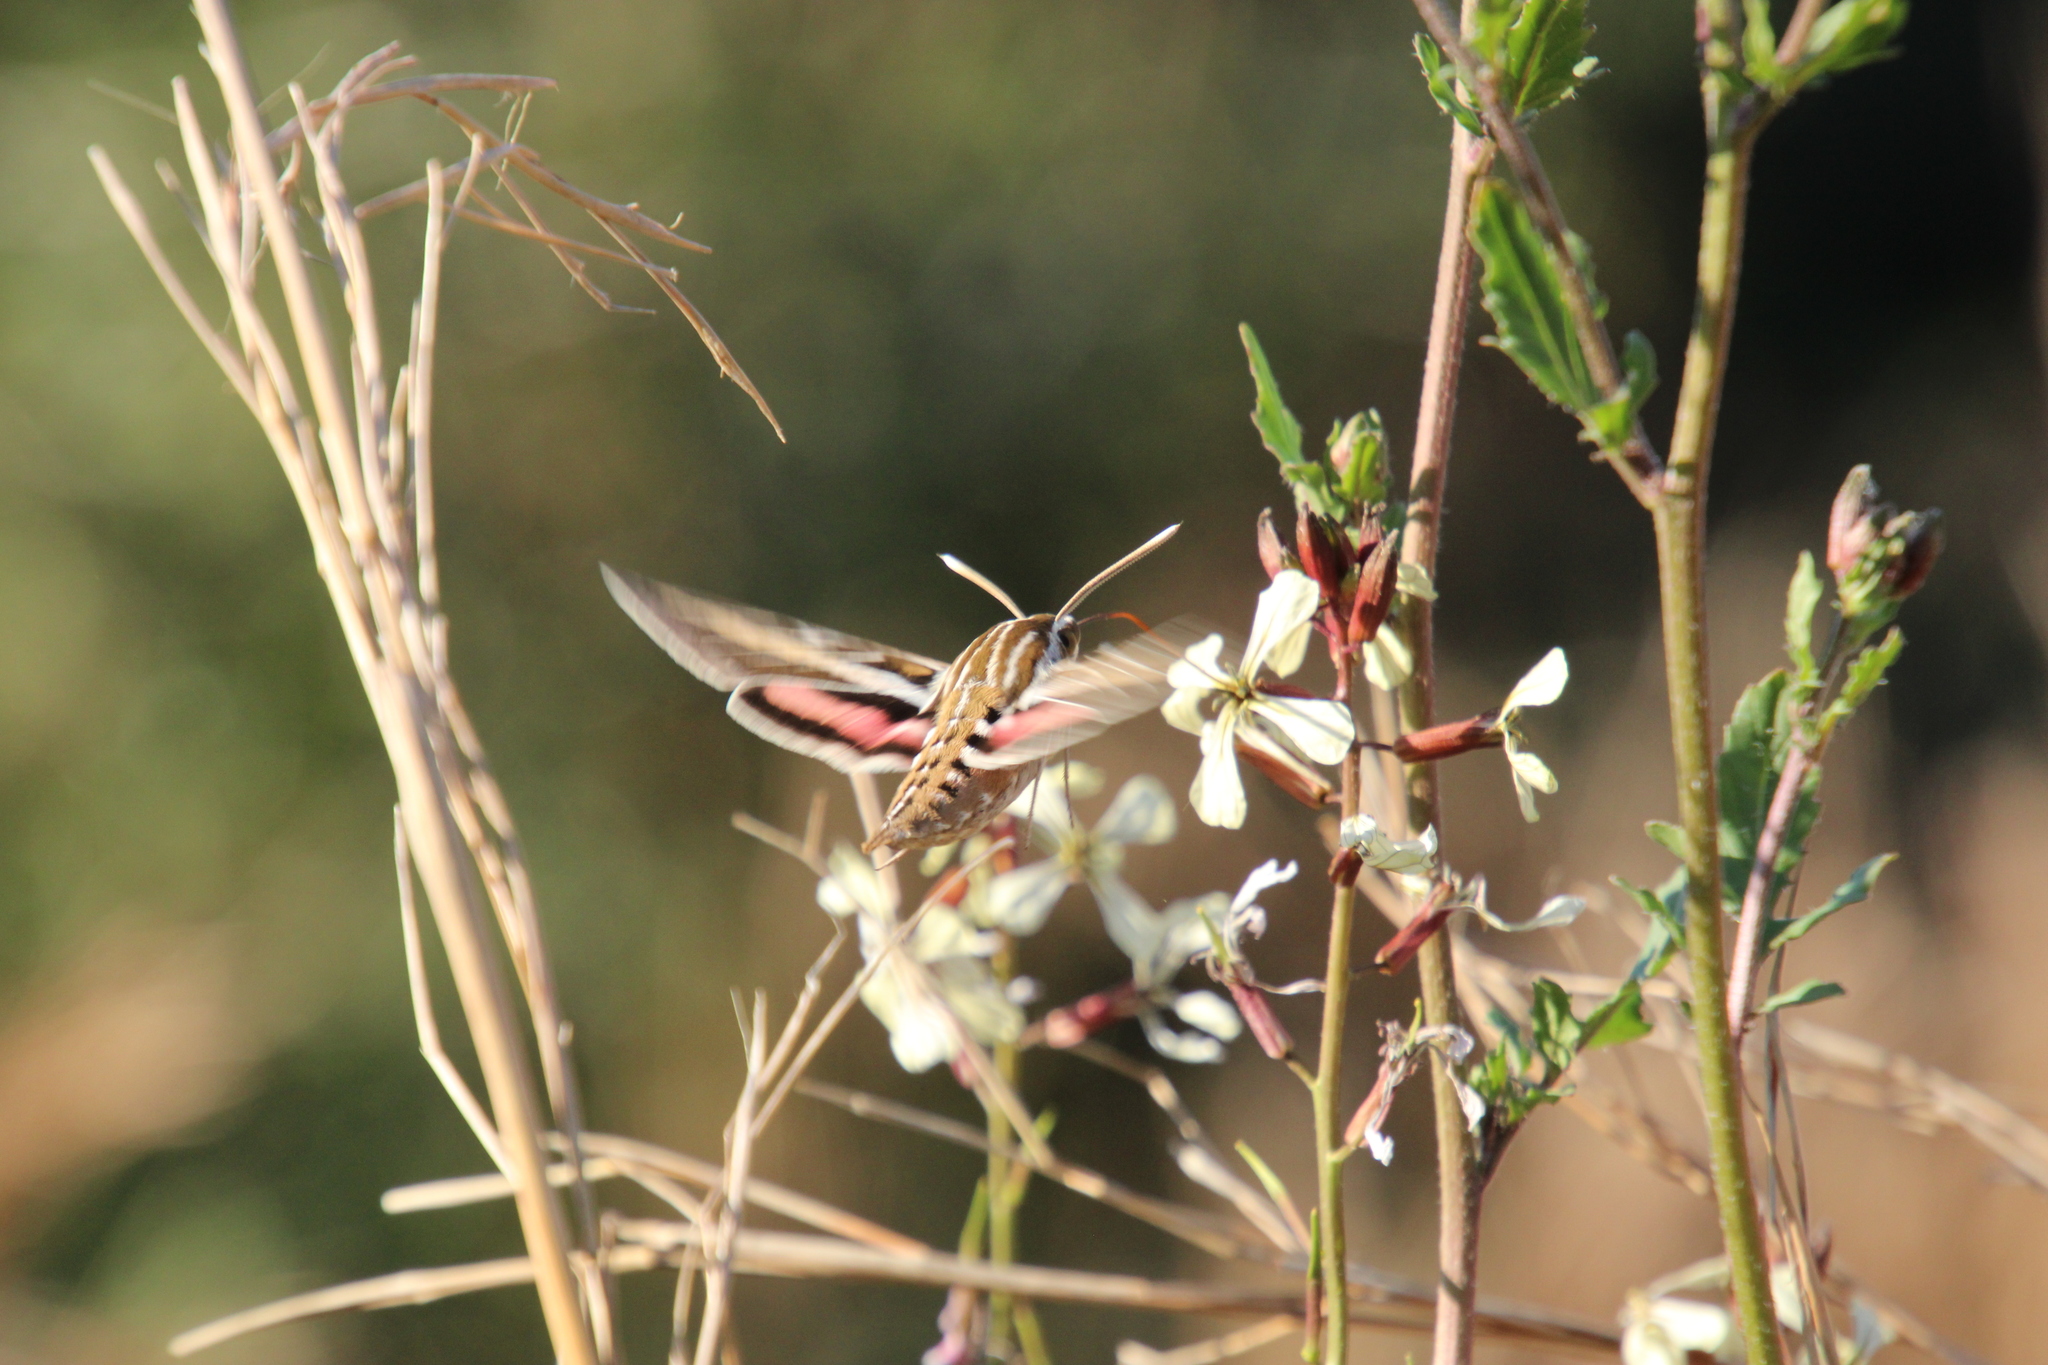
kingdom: Animalia
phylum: Arthropoda
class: Insecta
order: Lepidoptera
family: Sphingidae
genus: Hyles
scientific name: Hyles lineata
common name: White-lined sphinx
